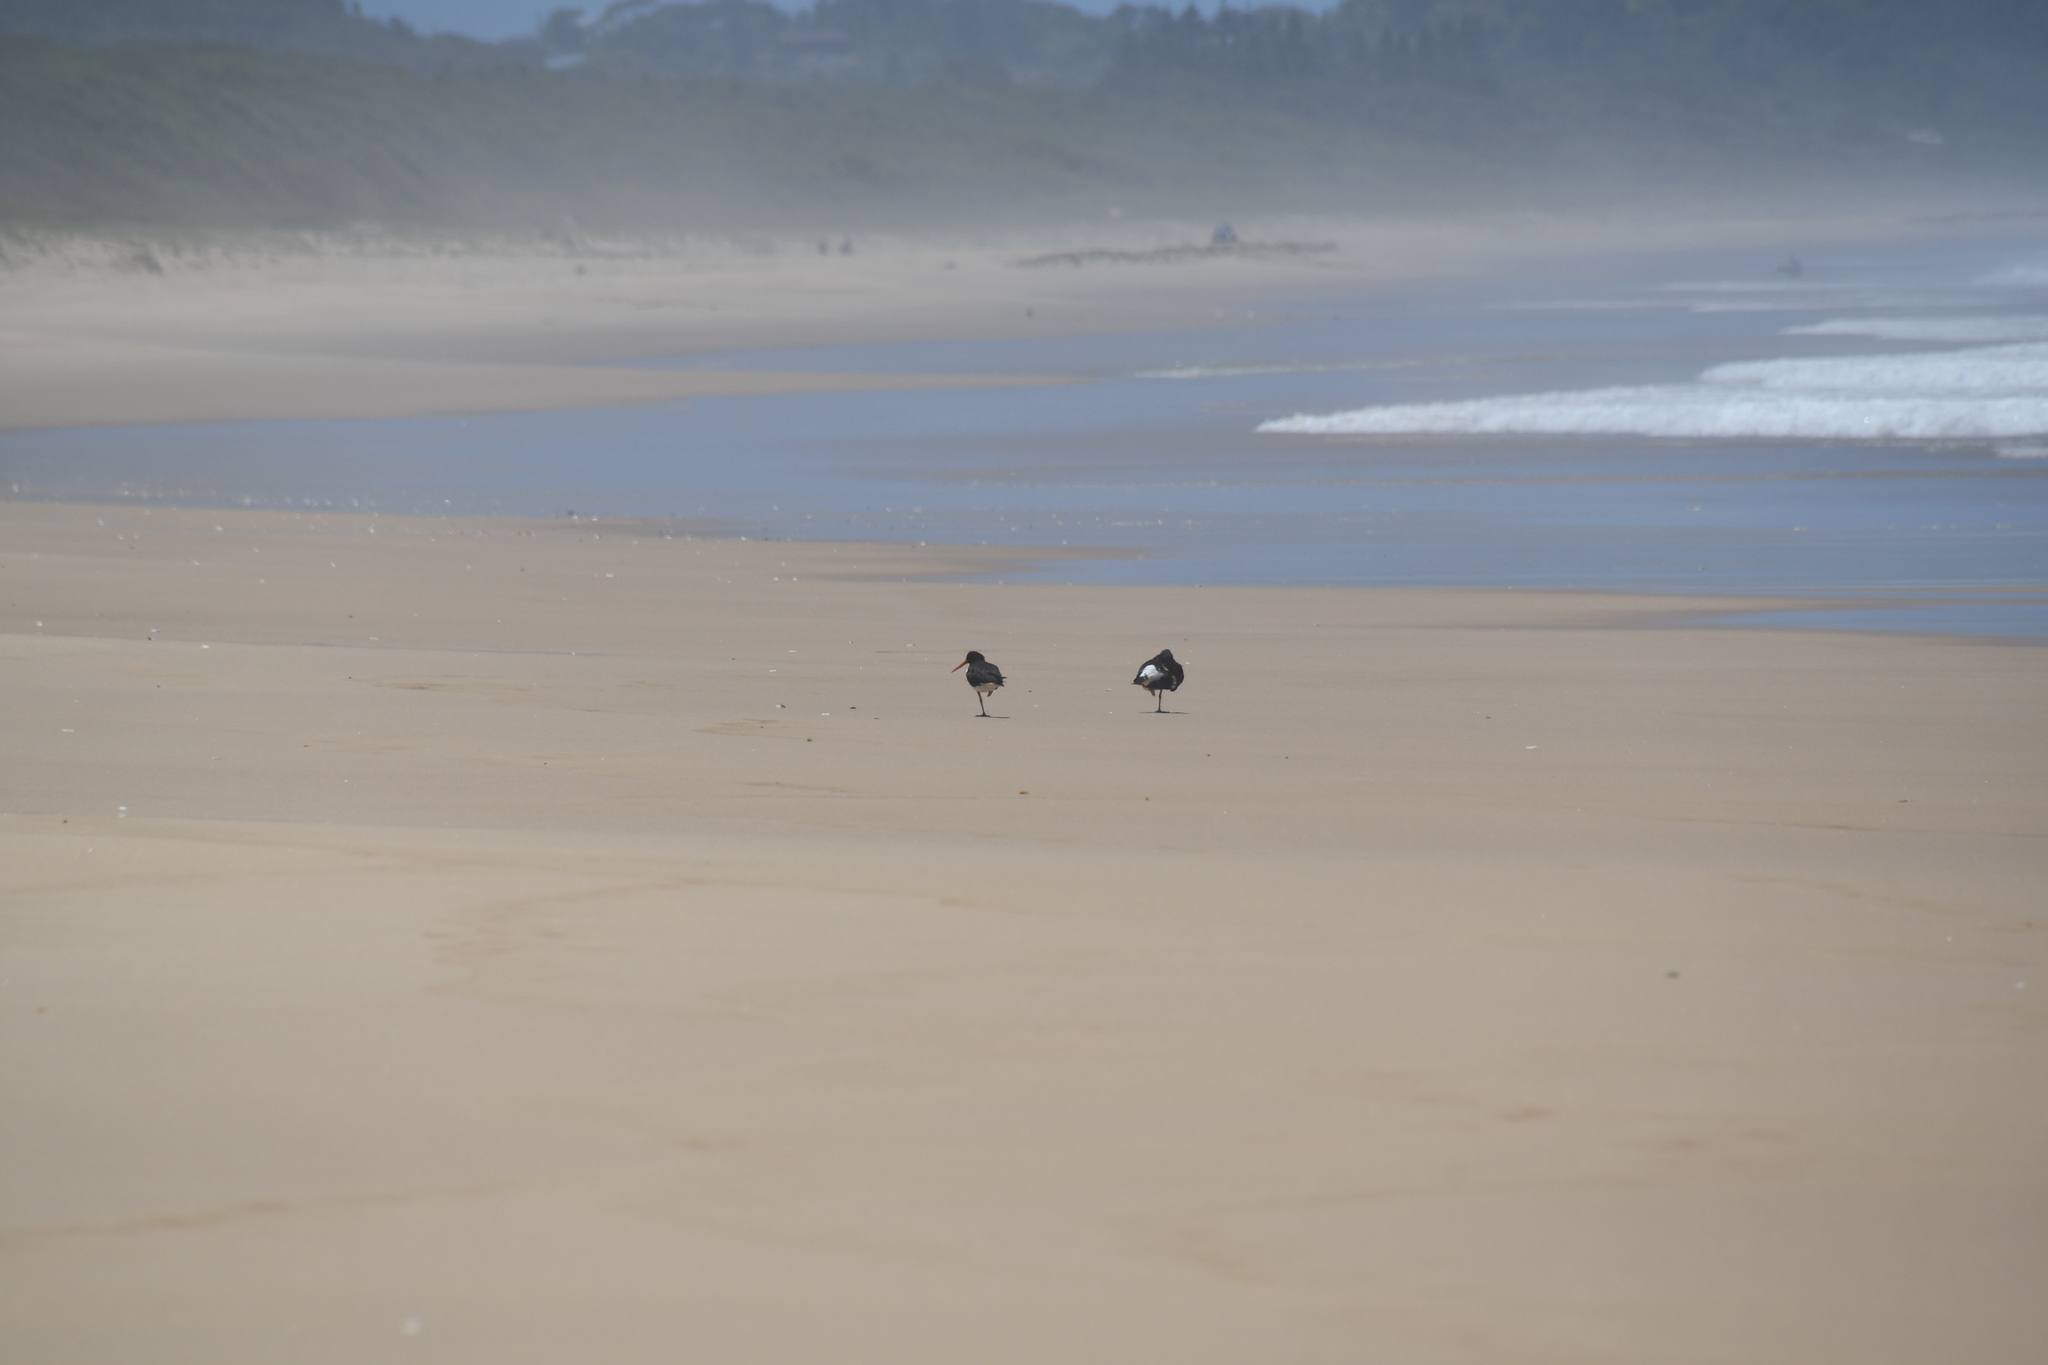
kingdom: Animalia
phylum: Chordata
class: Aves
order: Charadriiformes
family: Haematopodidae
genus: Haematopus
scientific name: Haematopus longirostris
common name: Pied oystercatcher
